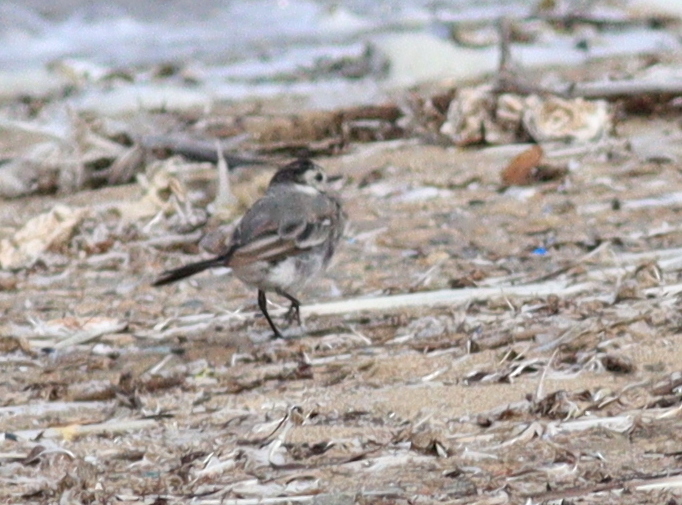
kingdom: Animalia
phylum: Chordata
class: Aves
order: Passeriformes
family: Motacillidae
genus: Motacilla
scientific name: Motacilla alba
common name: White wagtail
